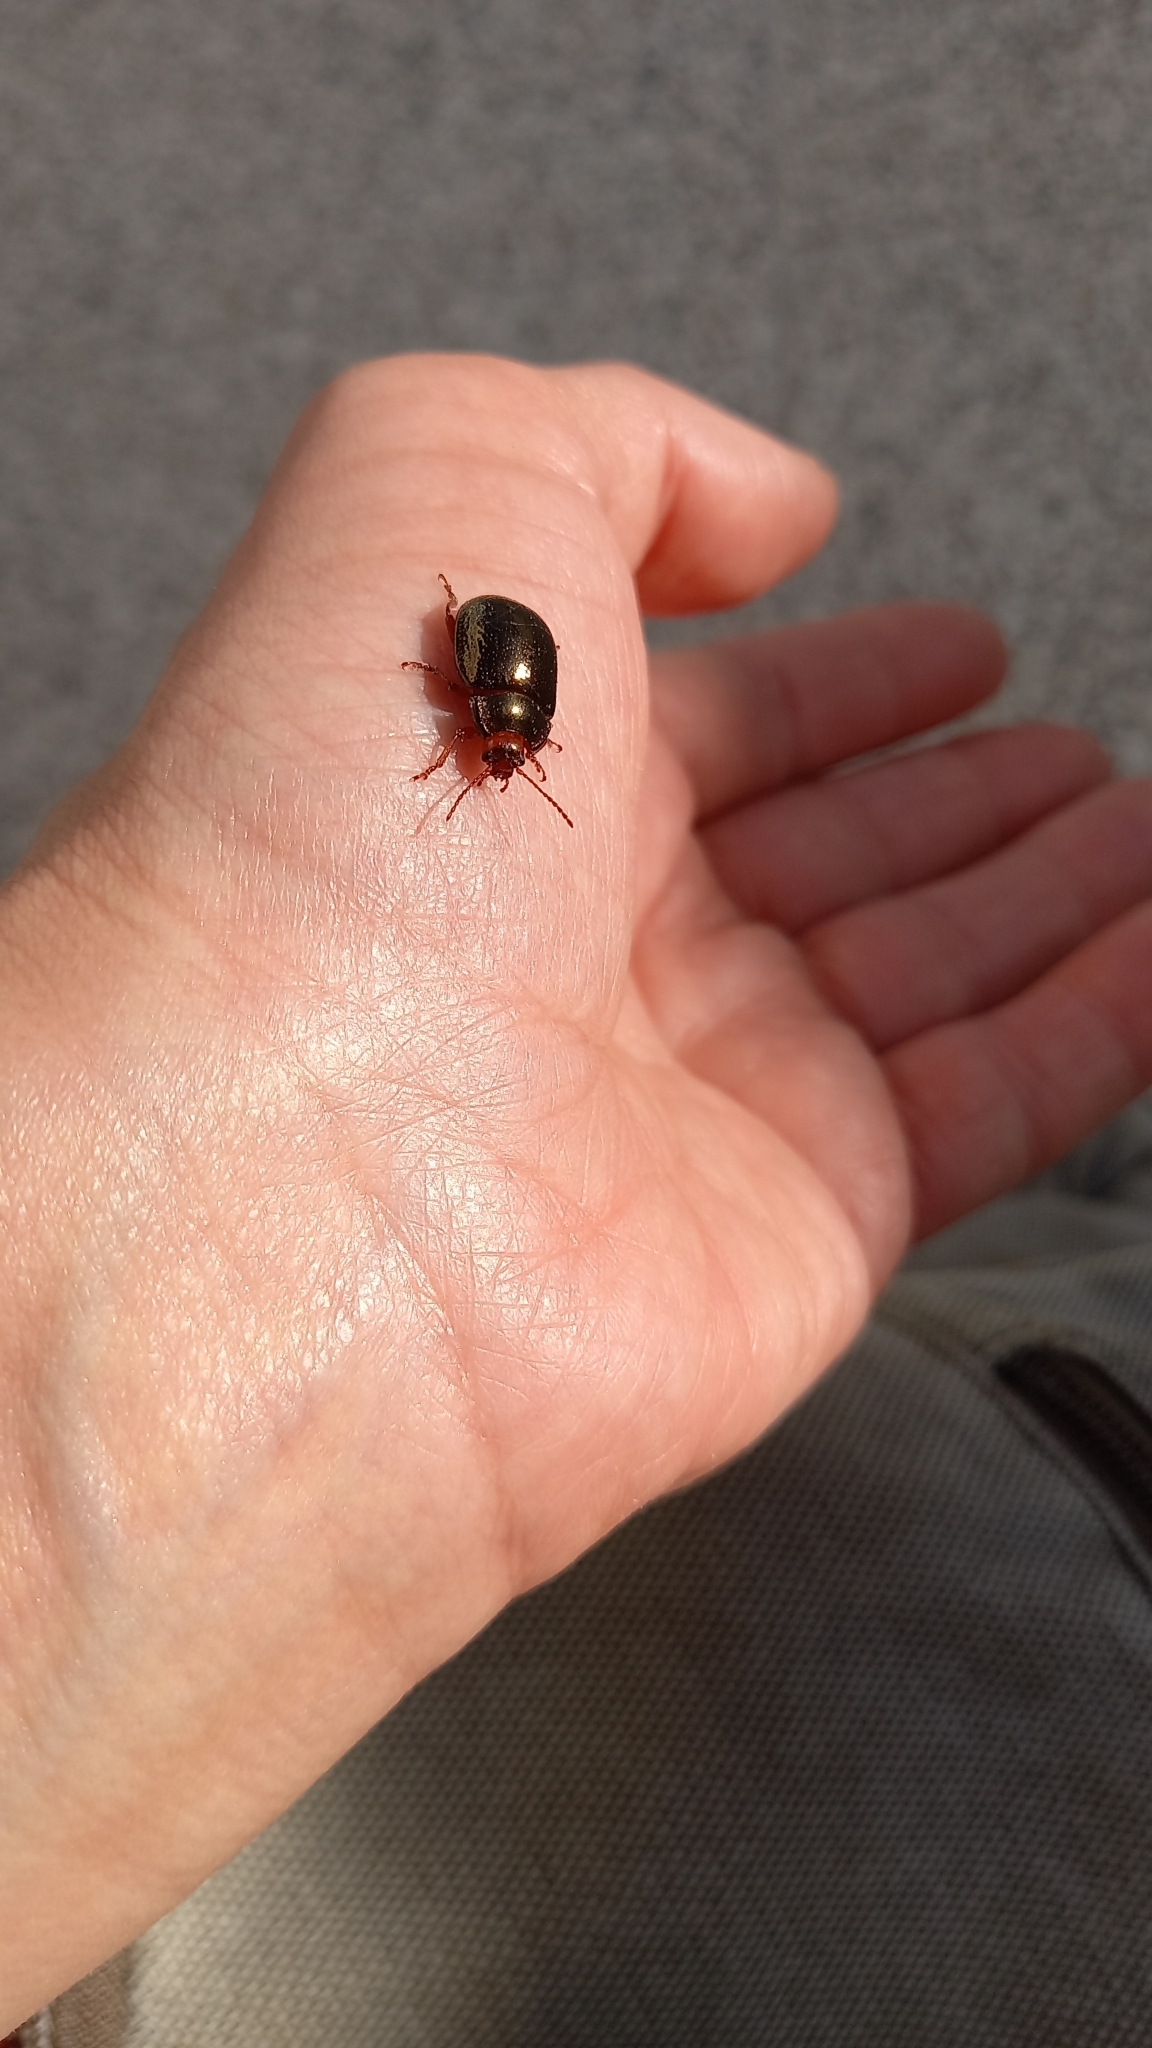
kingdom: Animalia
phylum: Arthropoda
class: Insecta
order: Coleoptera
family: Chrysomelidae
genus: Chrysolina
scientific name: Chrysolina bankii
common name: Leaf beetle
